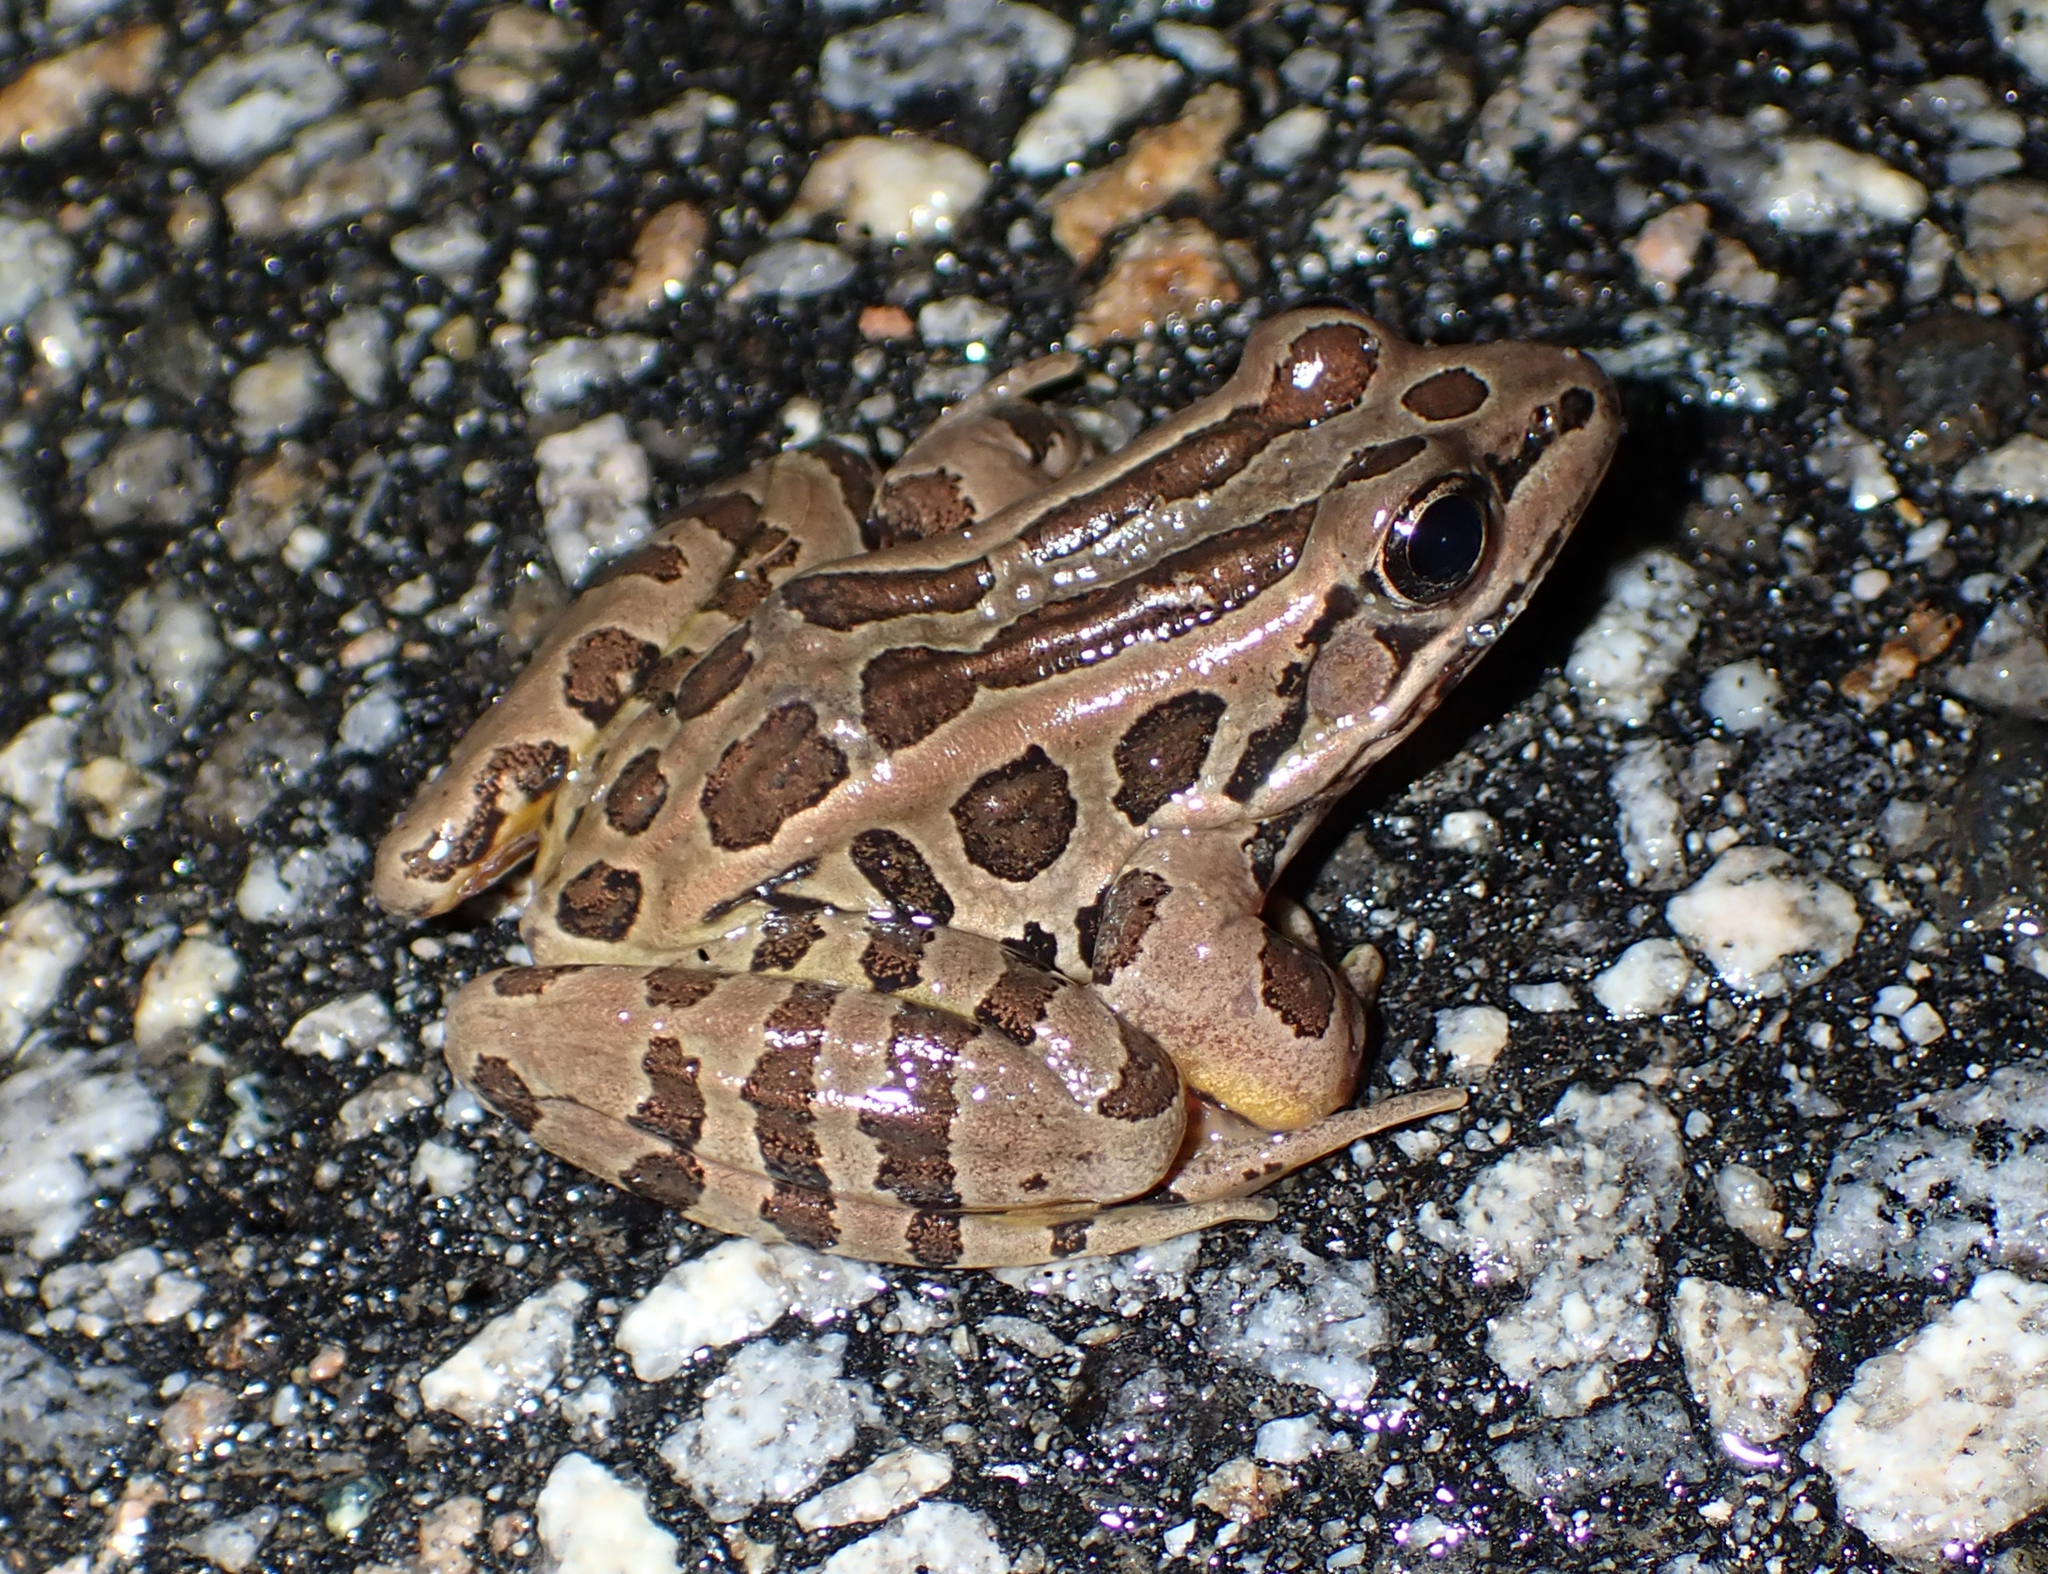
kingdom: Animalia
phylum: Chordata
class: Amphibia
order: Anura
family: Ranidae
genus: Lithobates
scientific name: Lithobates palustris
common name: Pickerel frog
